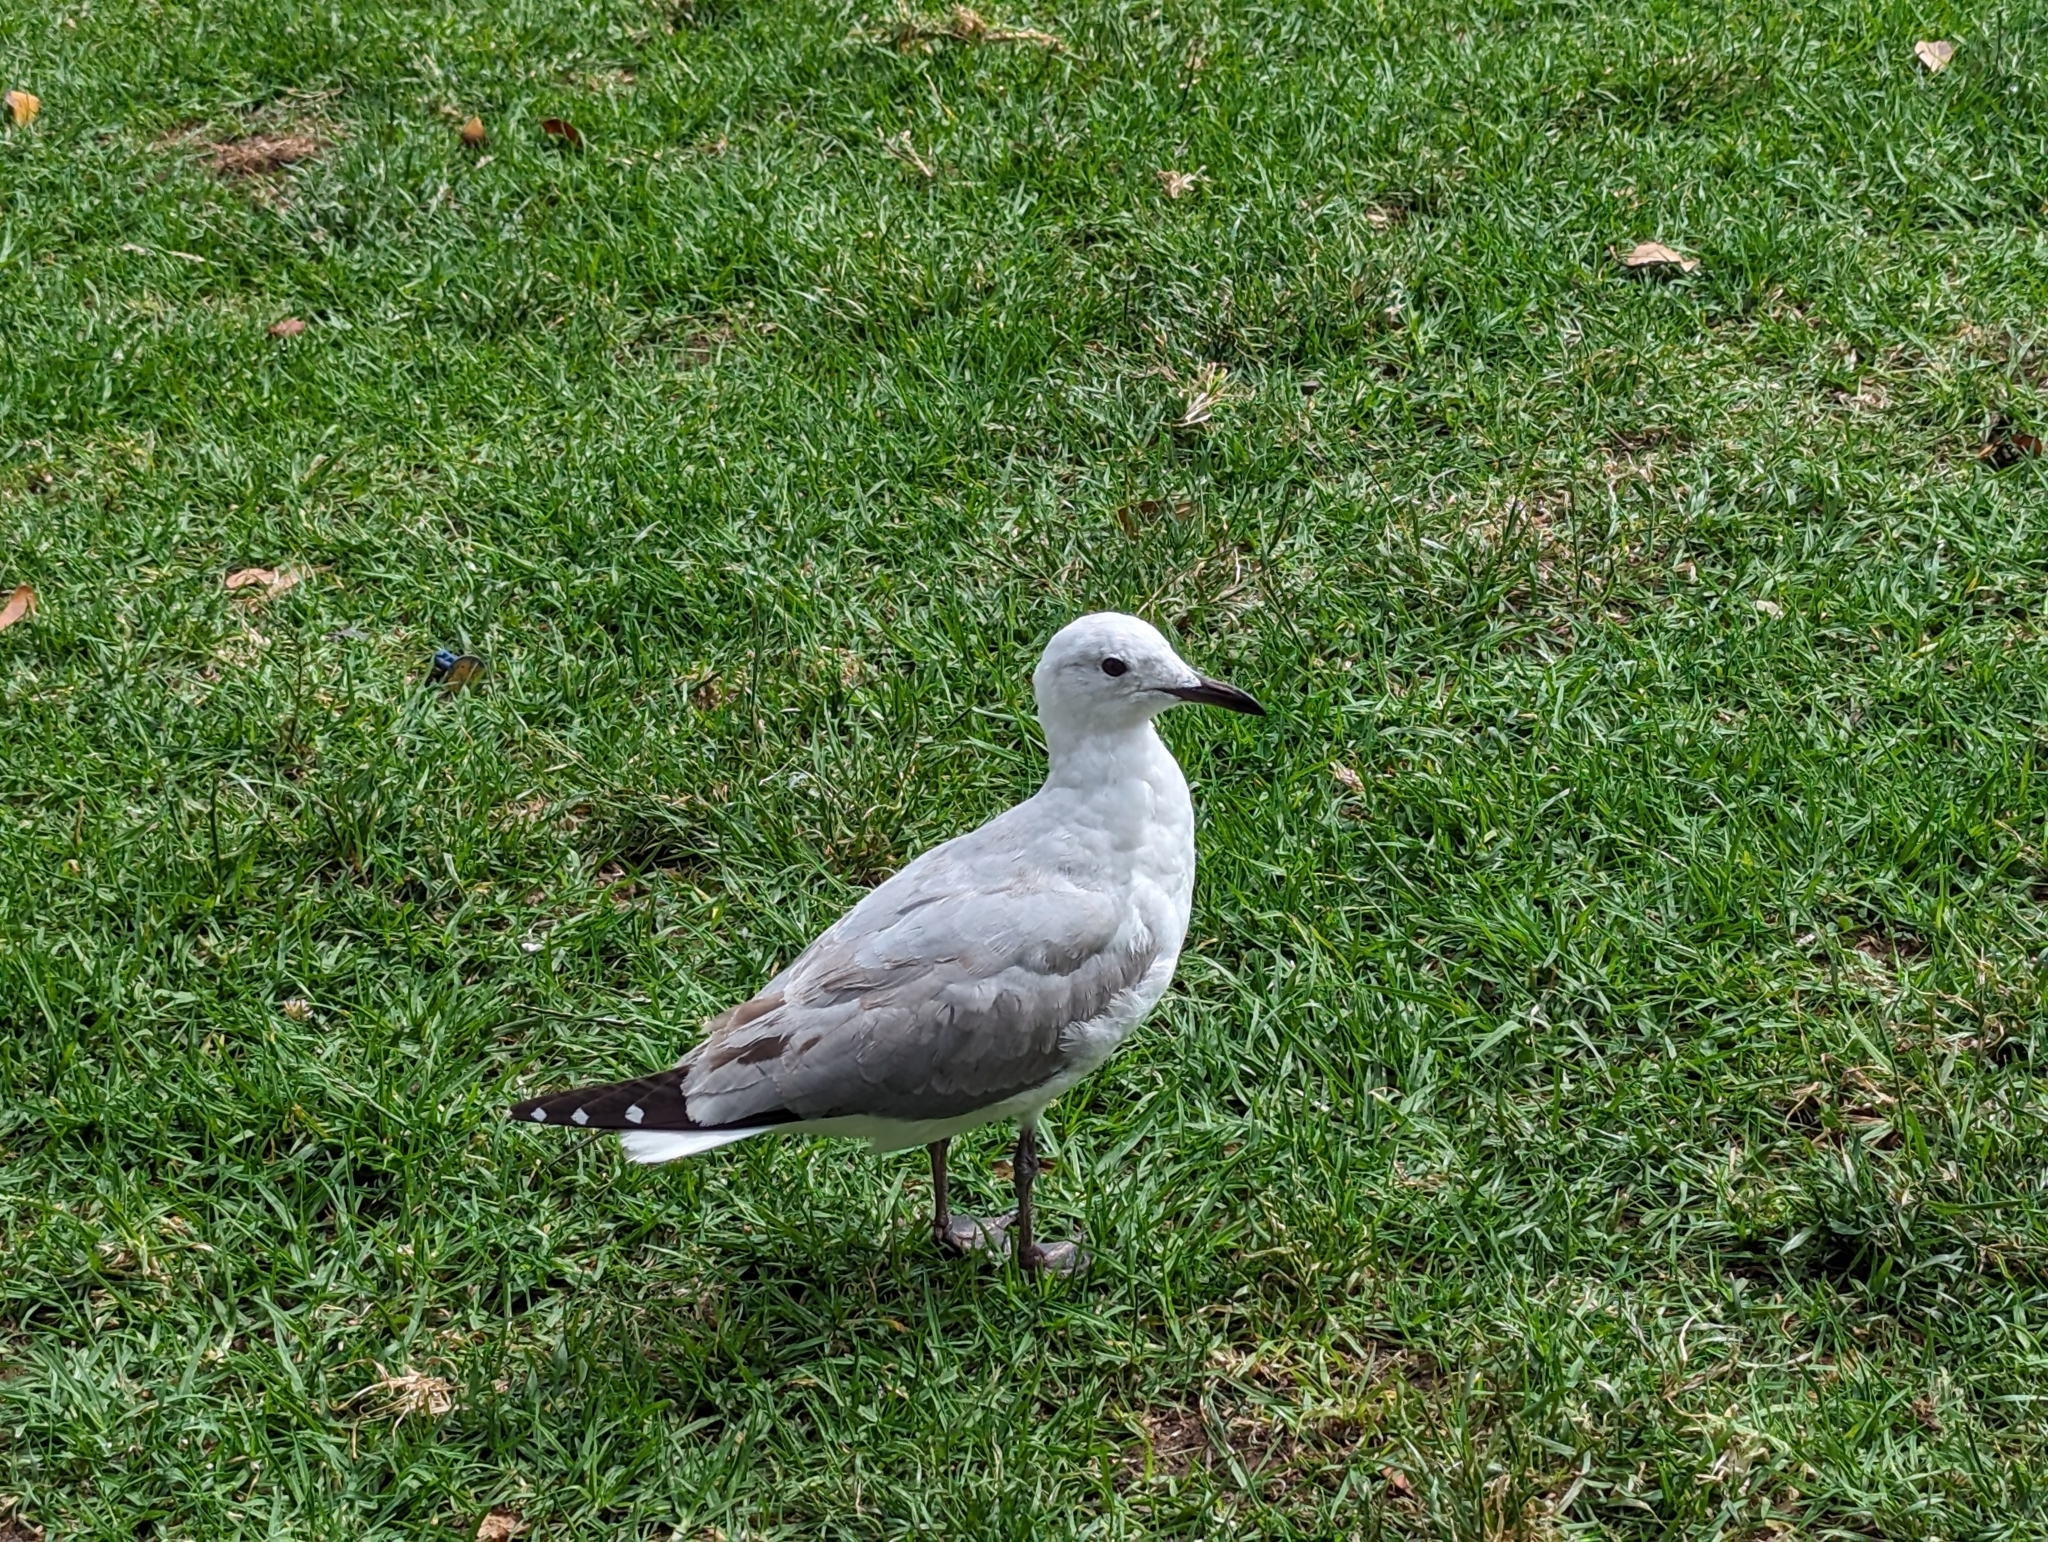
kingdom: Animalia
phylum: Chordata
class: Aves
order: Charadriiformes
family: Laridae
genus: Chroicocephalus
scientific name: Chroicocephalus hartlaubii
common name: Hartlaub's gull
